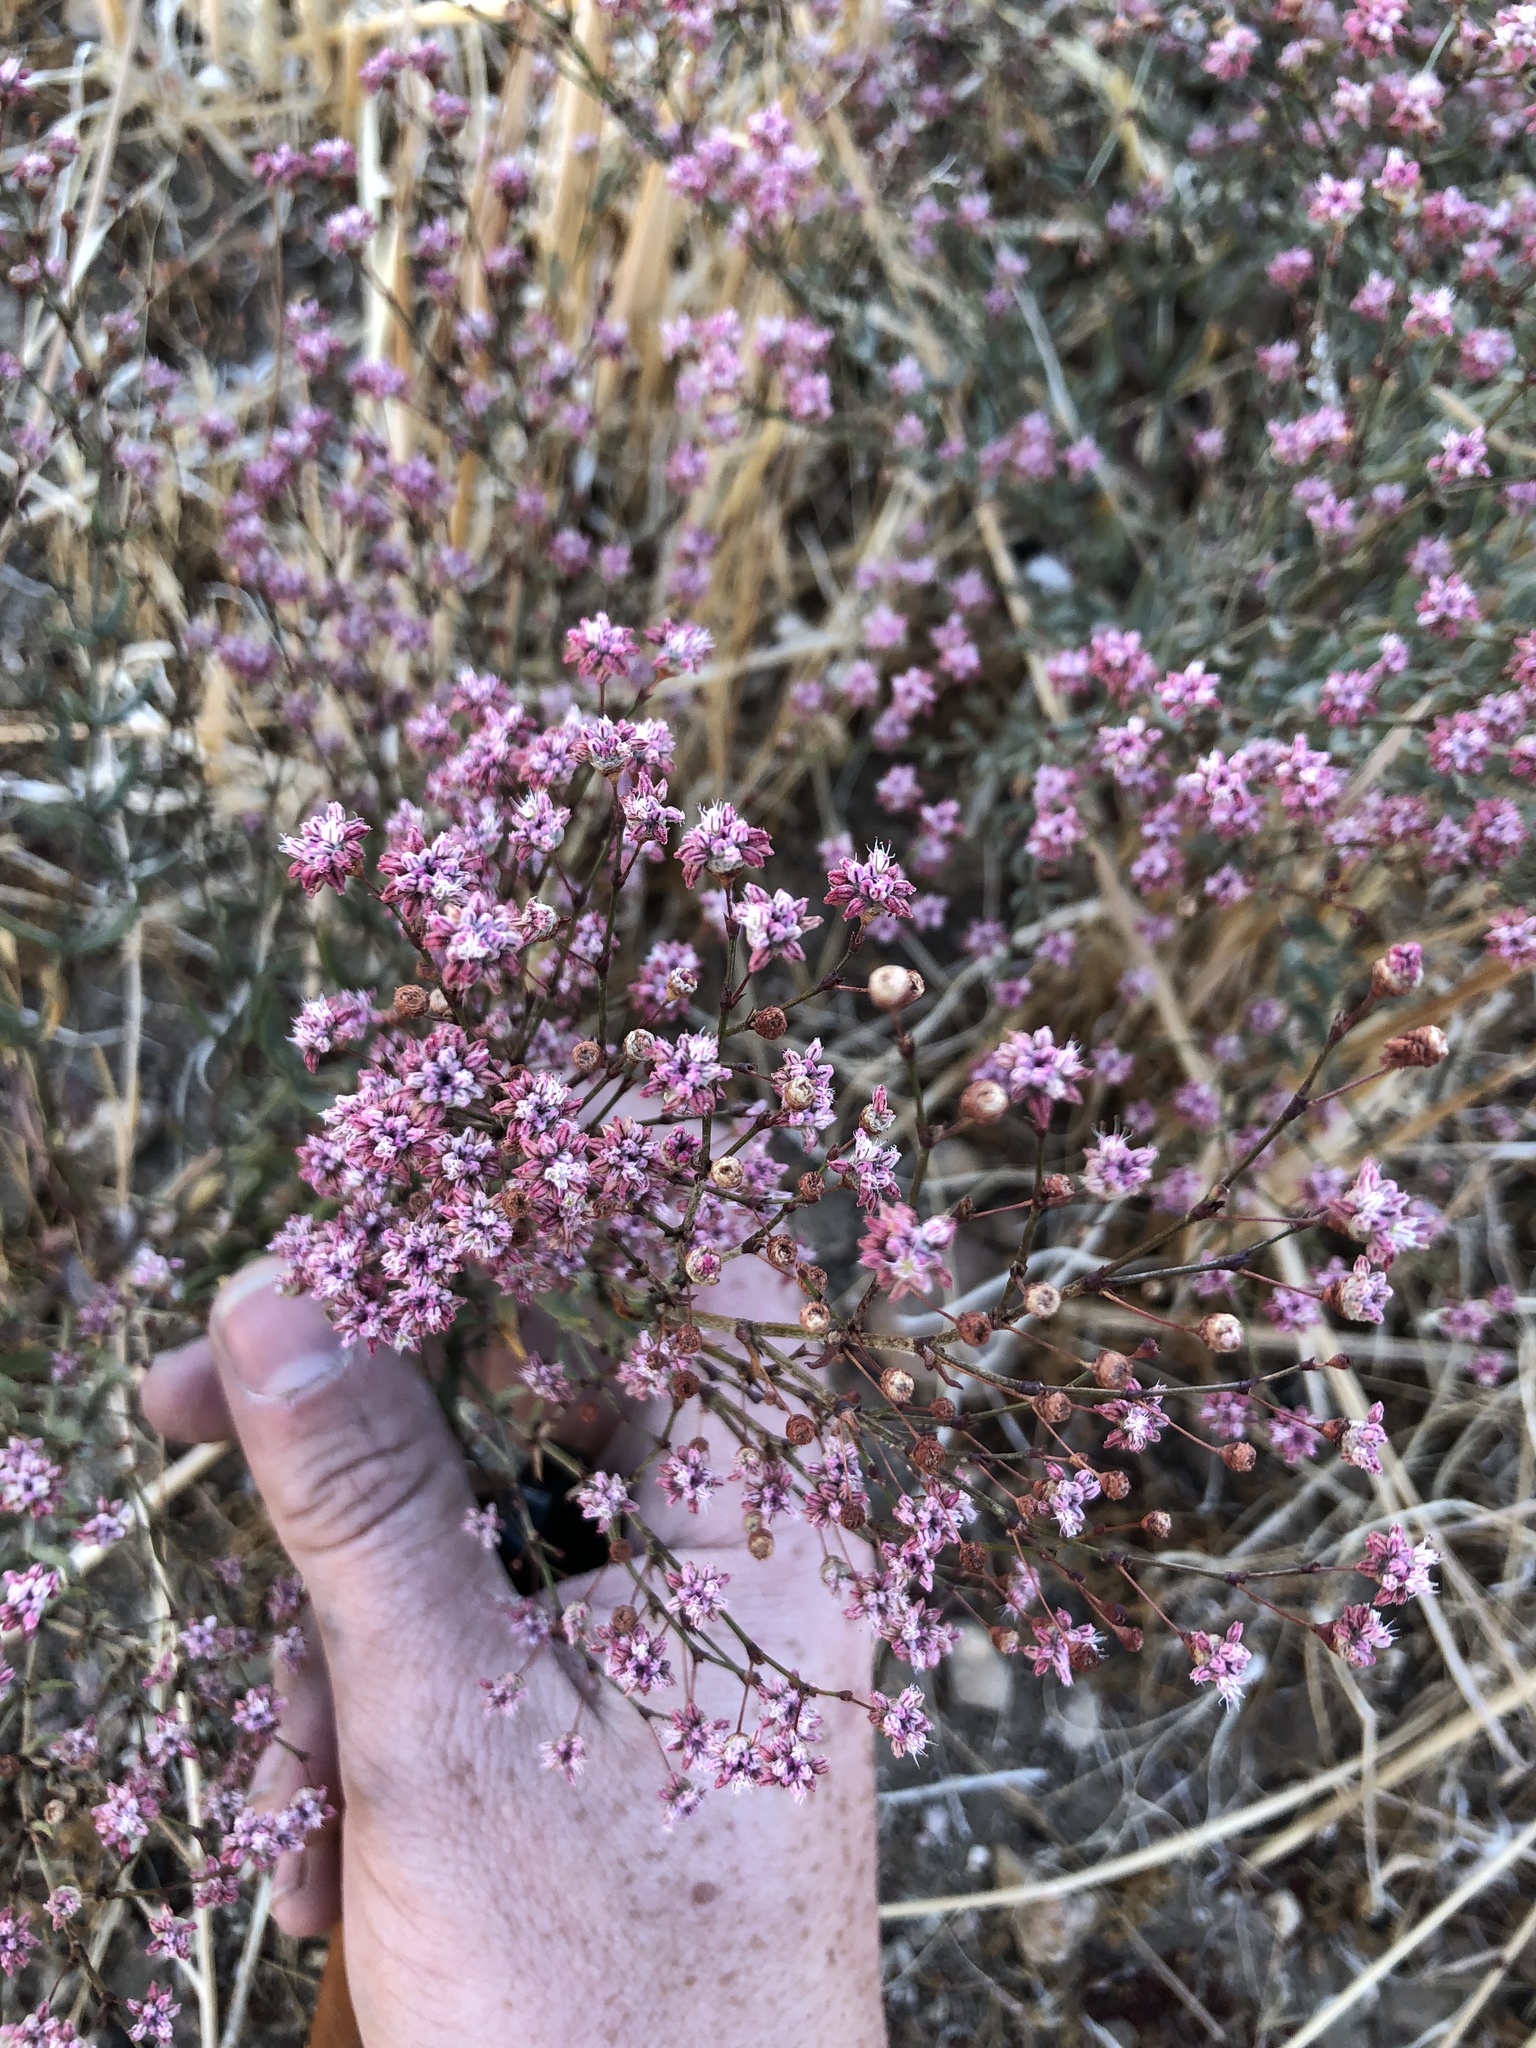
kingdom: Plantae
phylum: Tracheophyta
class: Magnoliopsida
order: Caryophyllales
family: Polygonaceae
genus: Eriogonum
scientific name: Eriogonum angulosum
